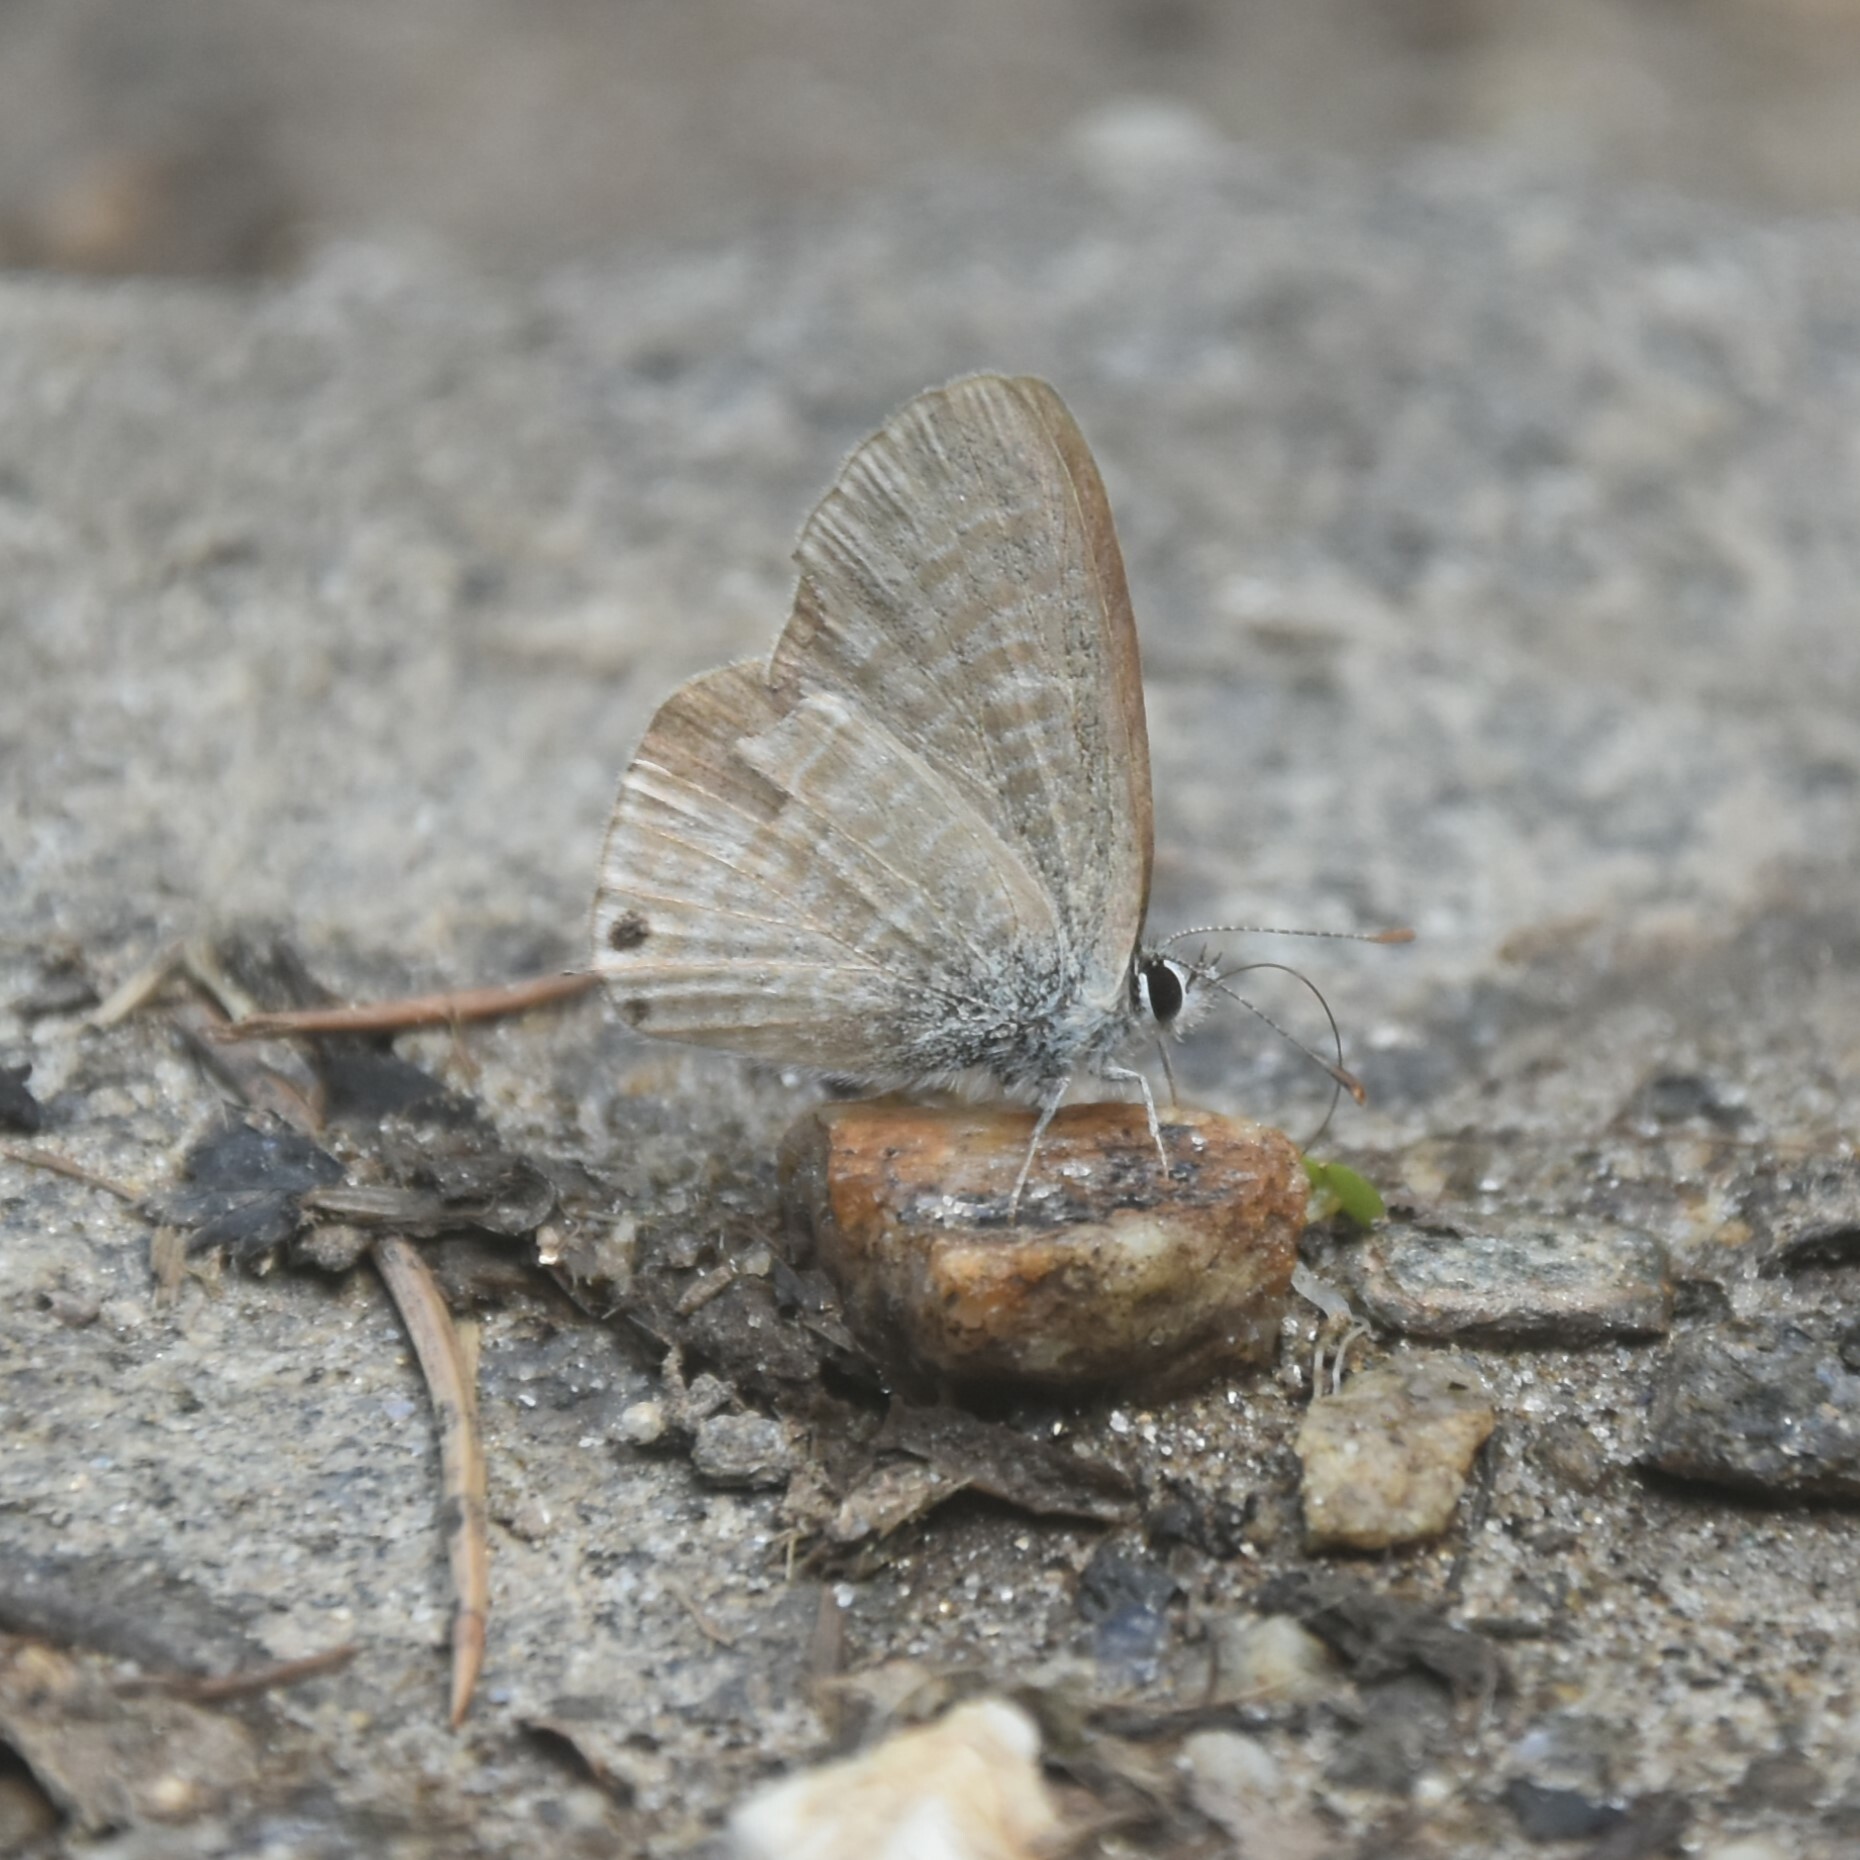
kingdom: Animalia
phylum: Arthropoda
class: Insecta
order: Lepidoptera
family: Lycaenidae
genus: Lampides
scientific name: Lampides boeticus
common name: Long-tailed blue
